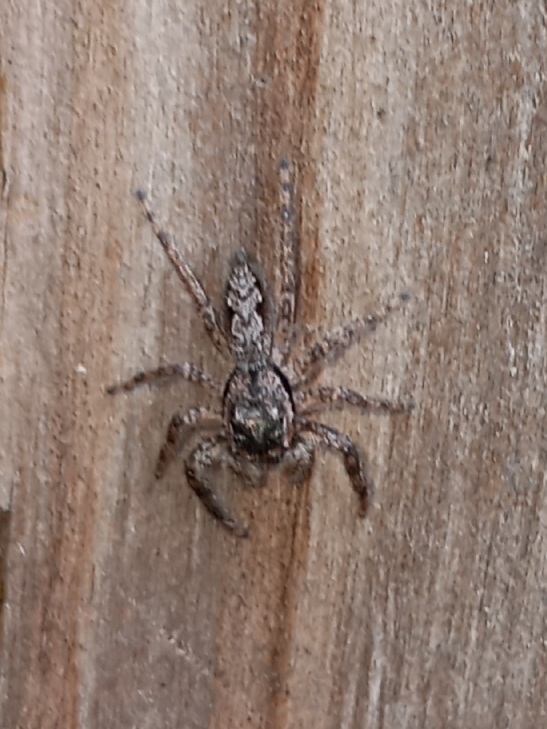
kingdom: Animalia
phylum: Arthropoda
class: Arachnida
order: Araneae
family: Salticidae
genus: Platycryptus
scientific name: Platycryptus undatus
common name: Tan jumping spider
